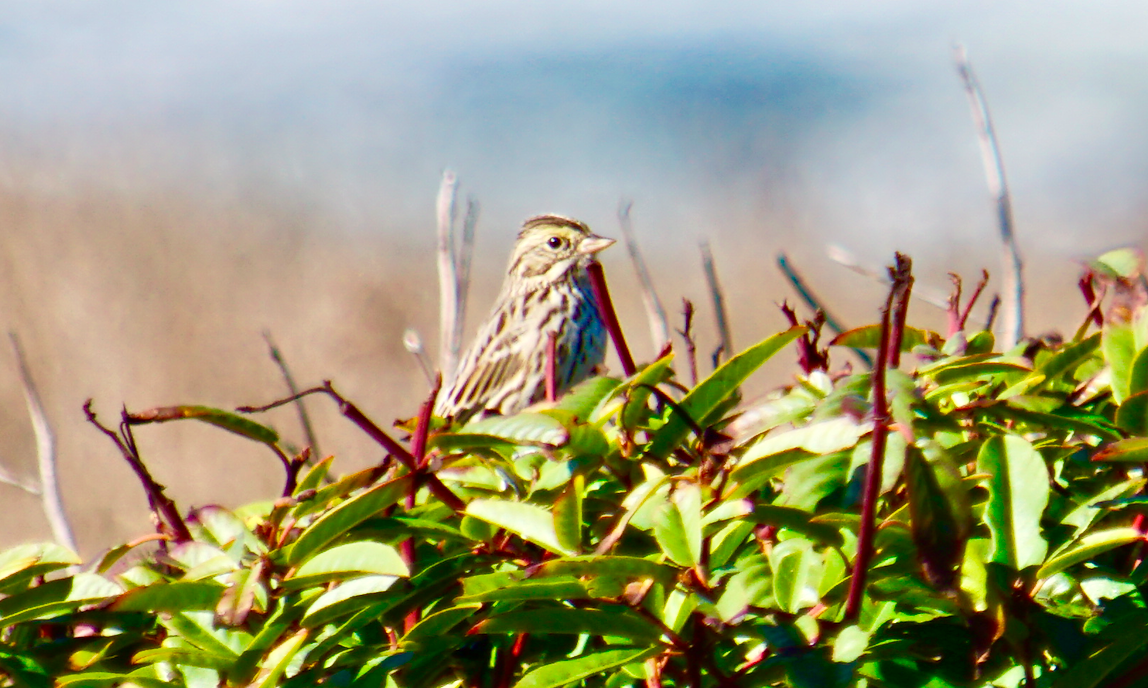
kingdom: Animalia
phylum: Chordata
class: Aves
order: Passeriformes
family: Passerellidae
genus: Passerculus
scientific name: Passerculus sandwichensis
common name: Savannah sparrow
